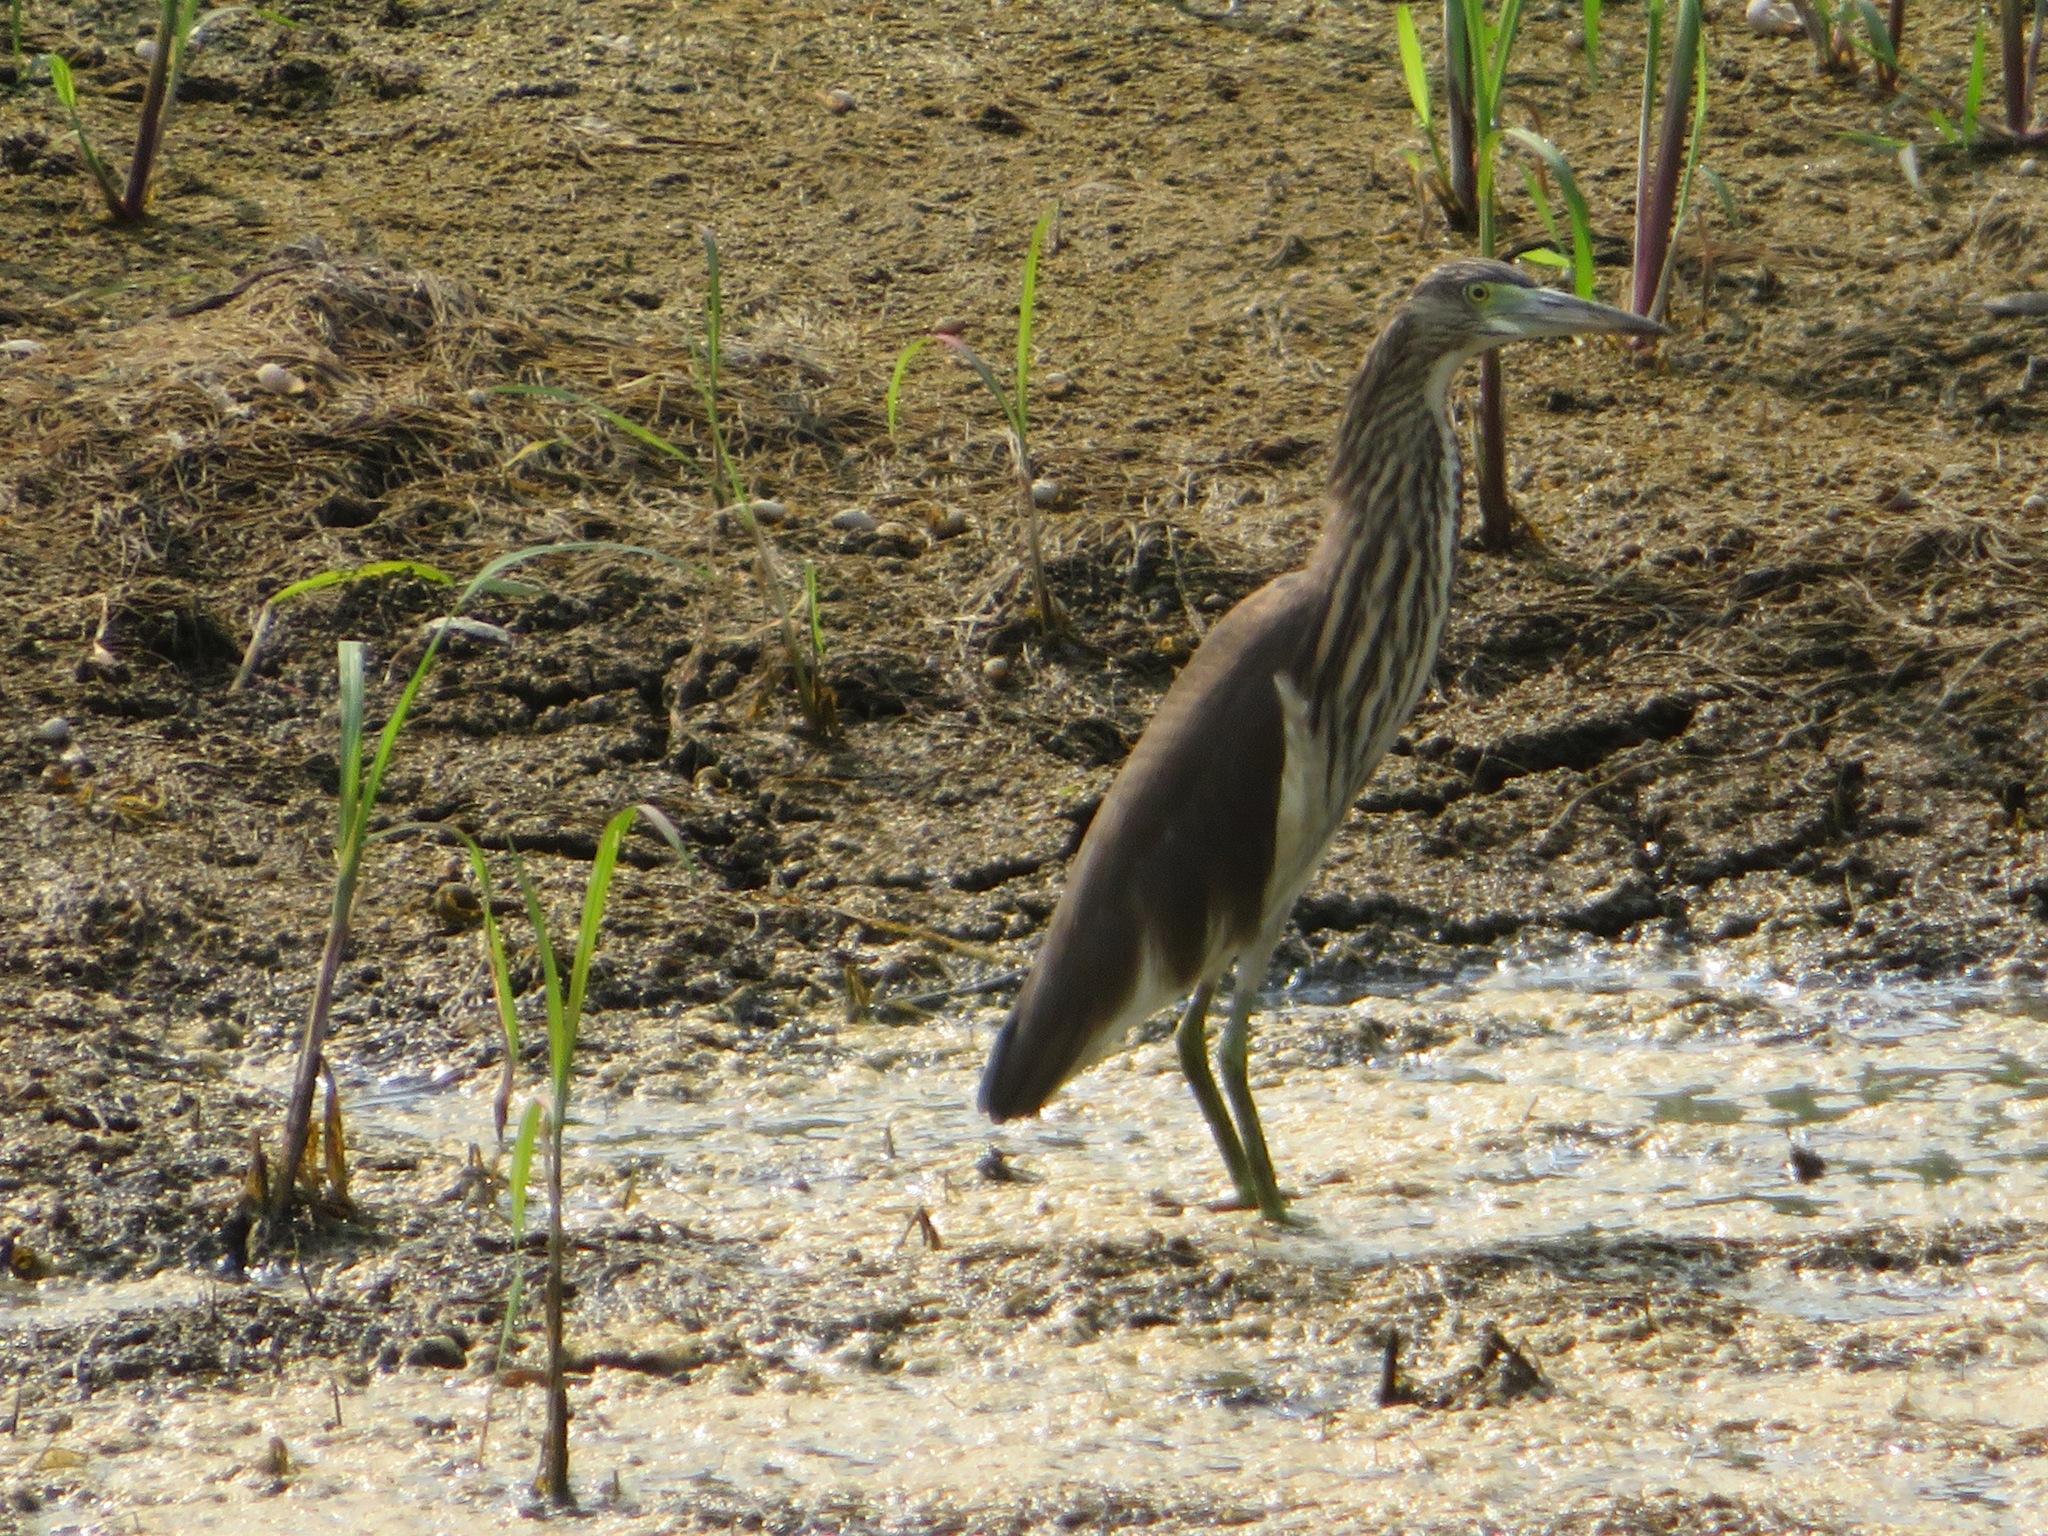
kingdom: Animalia
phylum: Chordata
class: Aves
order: Pelecaniformes
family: Ardeidae
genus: Ardeola
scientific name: Ardeola bacchus
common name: Chinese pond heron
